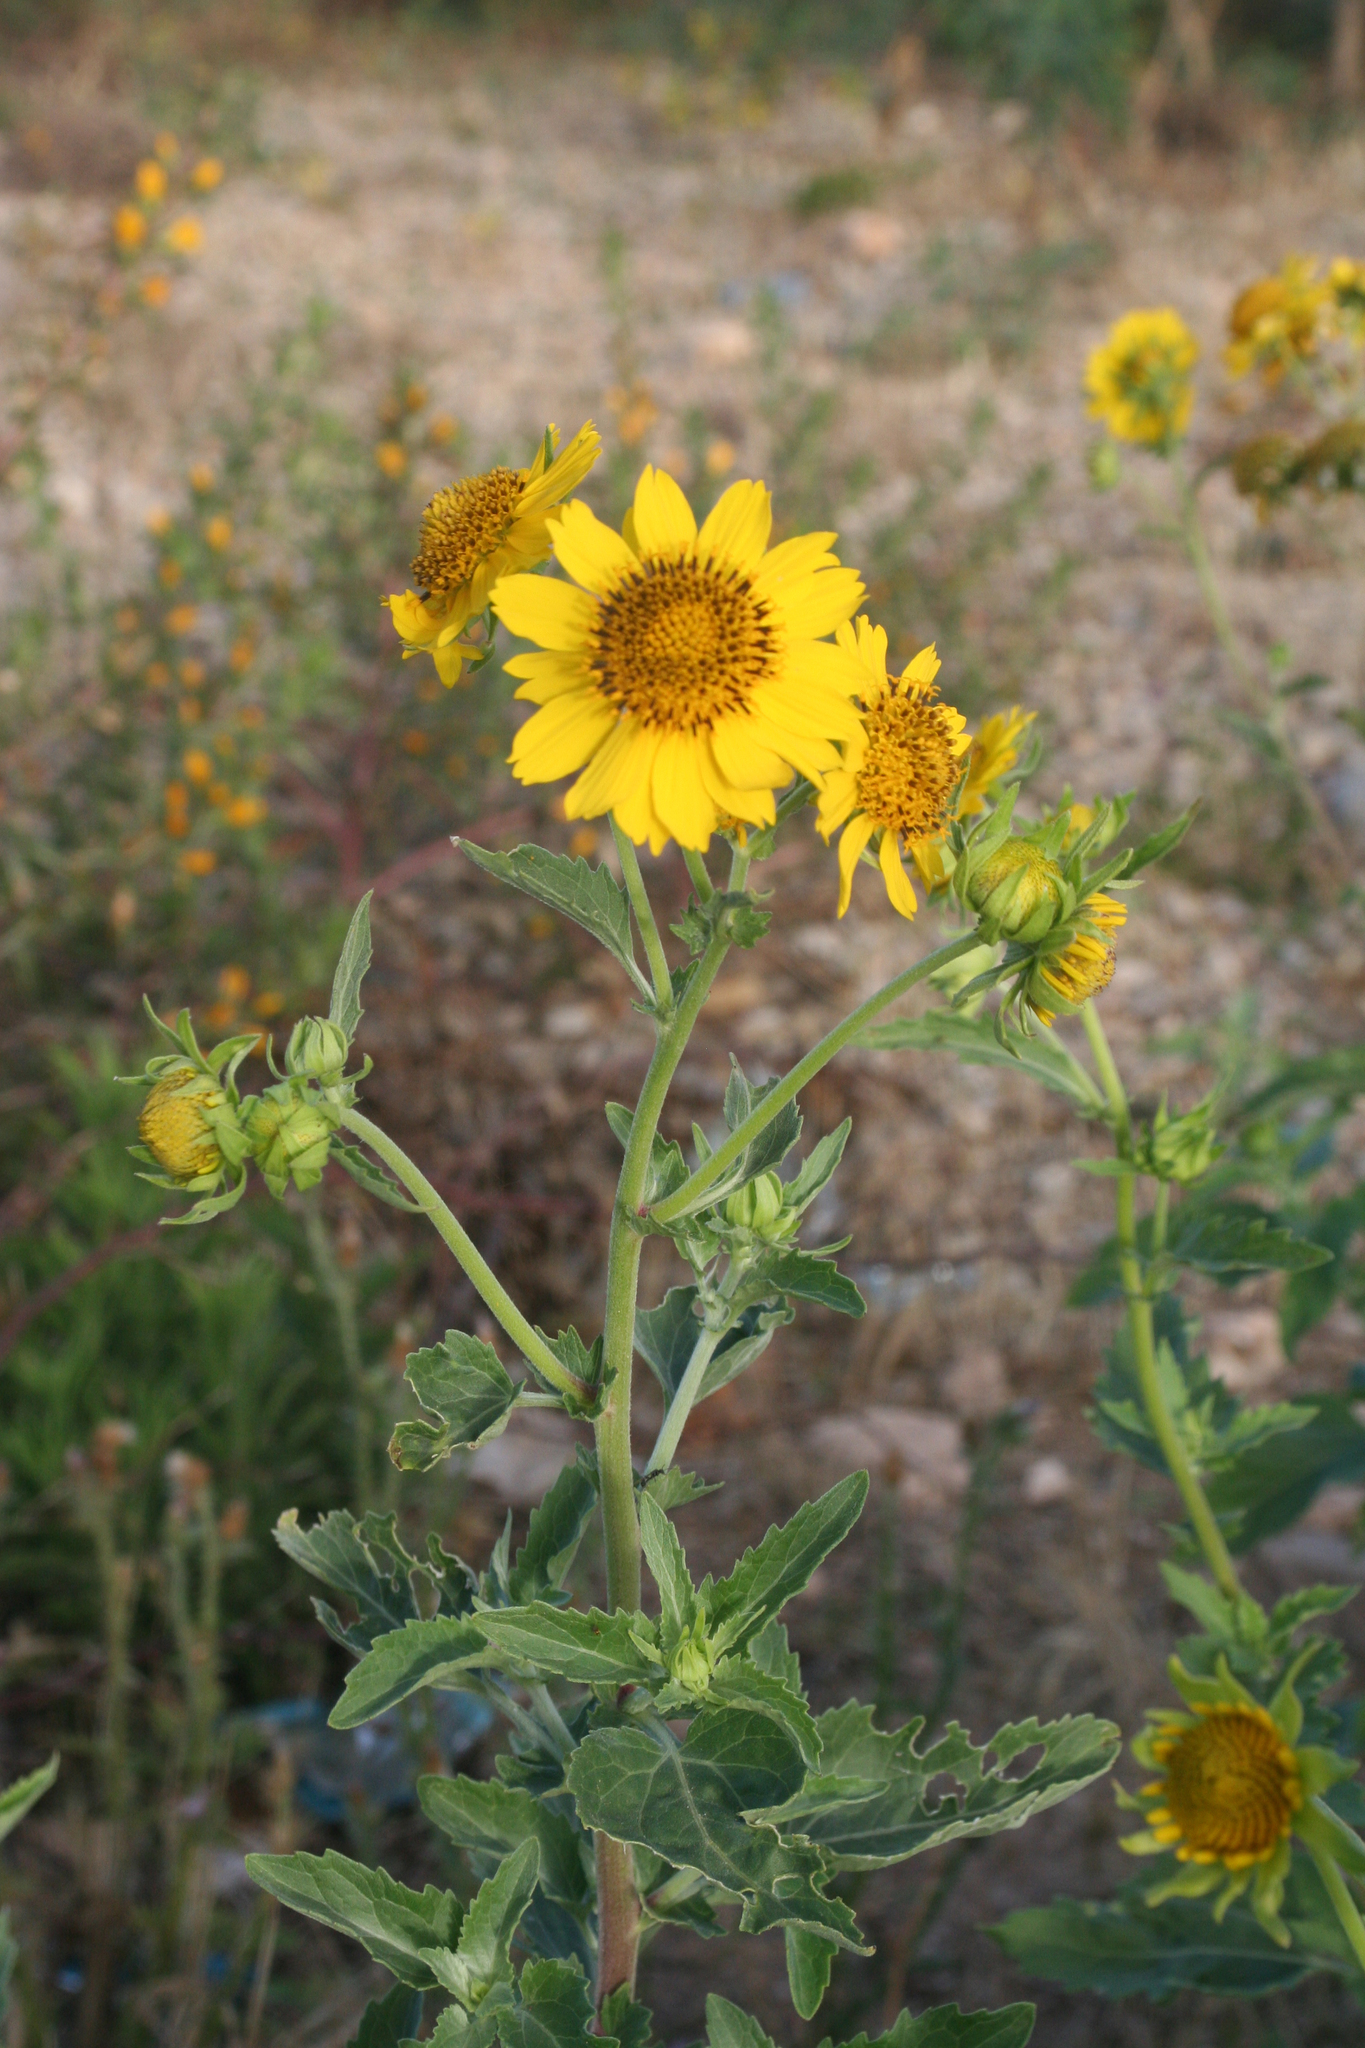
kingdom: Plantae
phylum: Tracheophyta
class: Magnoliopsida
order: Asterales
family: Asteraceae
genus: Verbesina
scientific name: Verbesina encelioides
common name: Golden crownbeard
